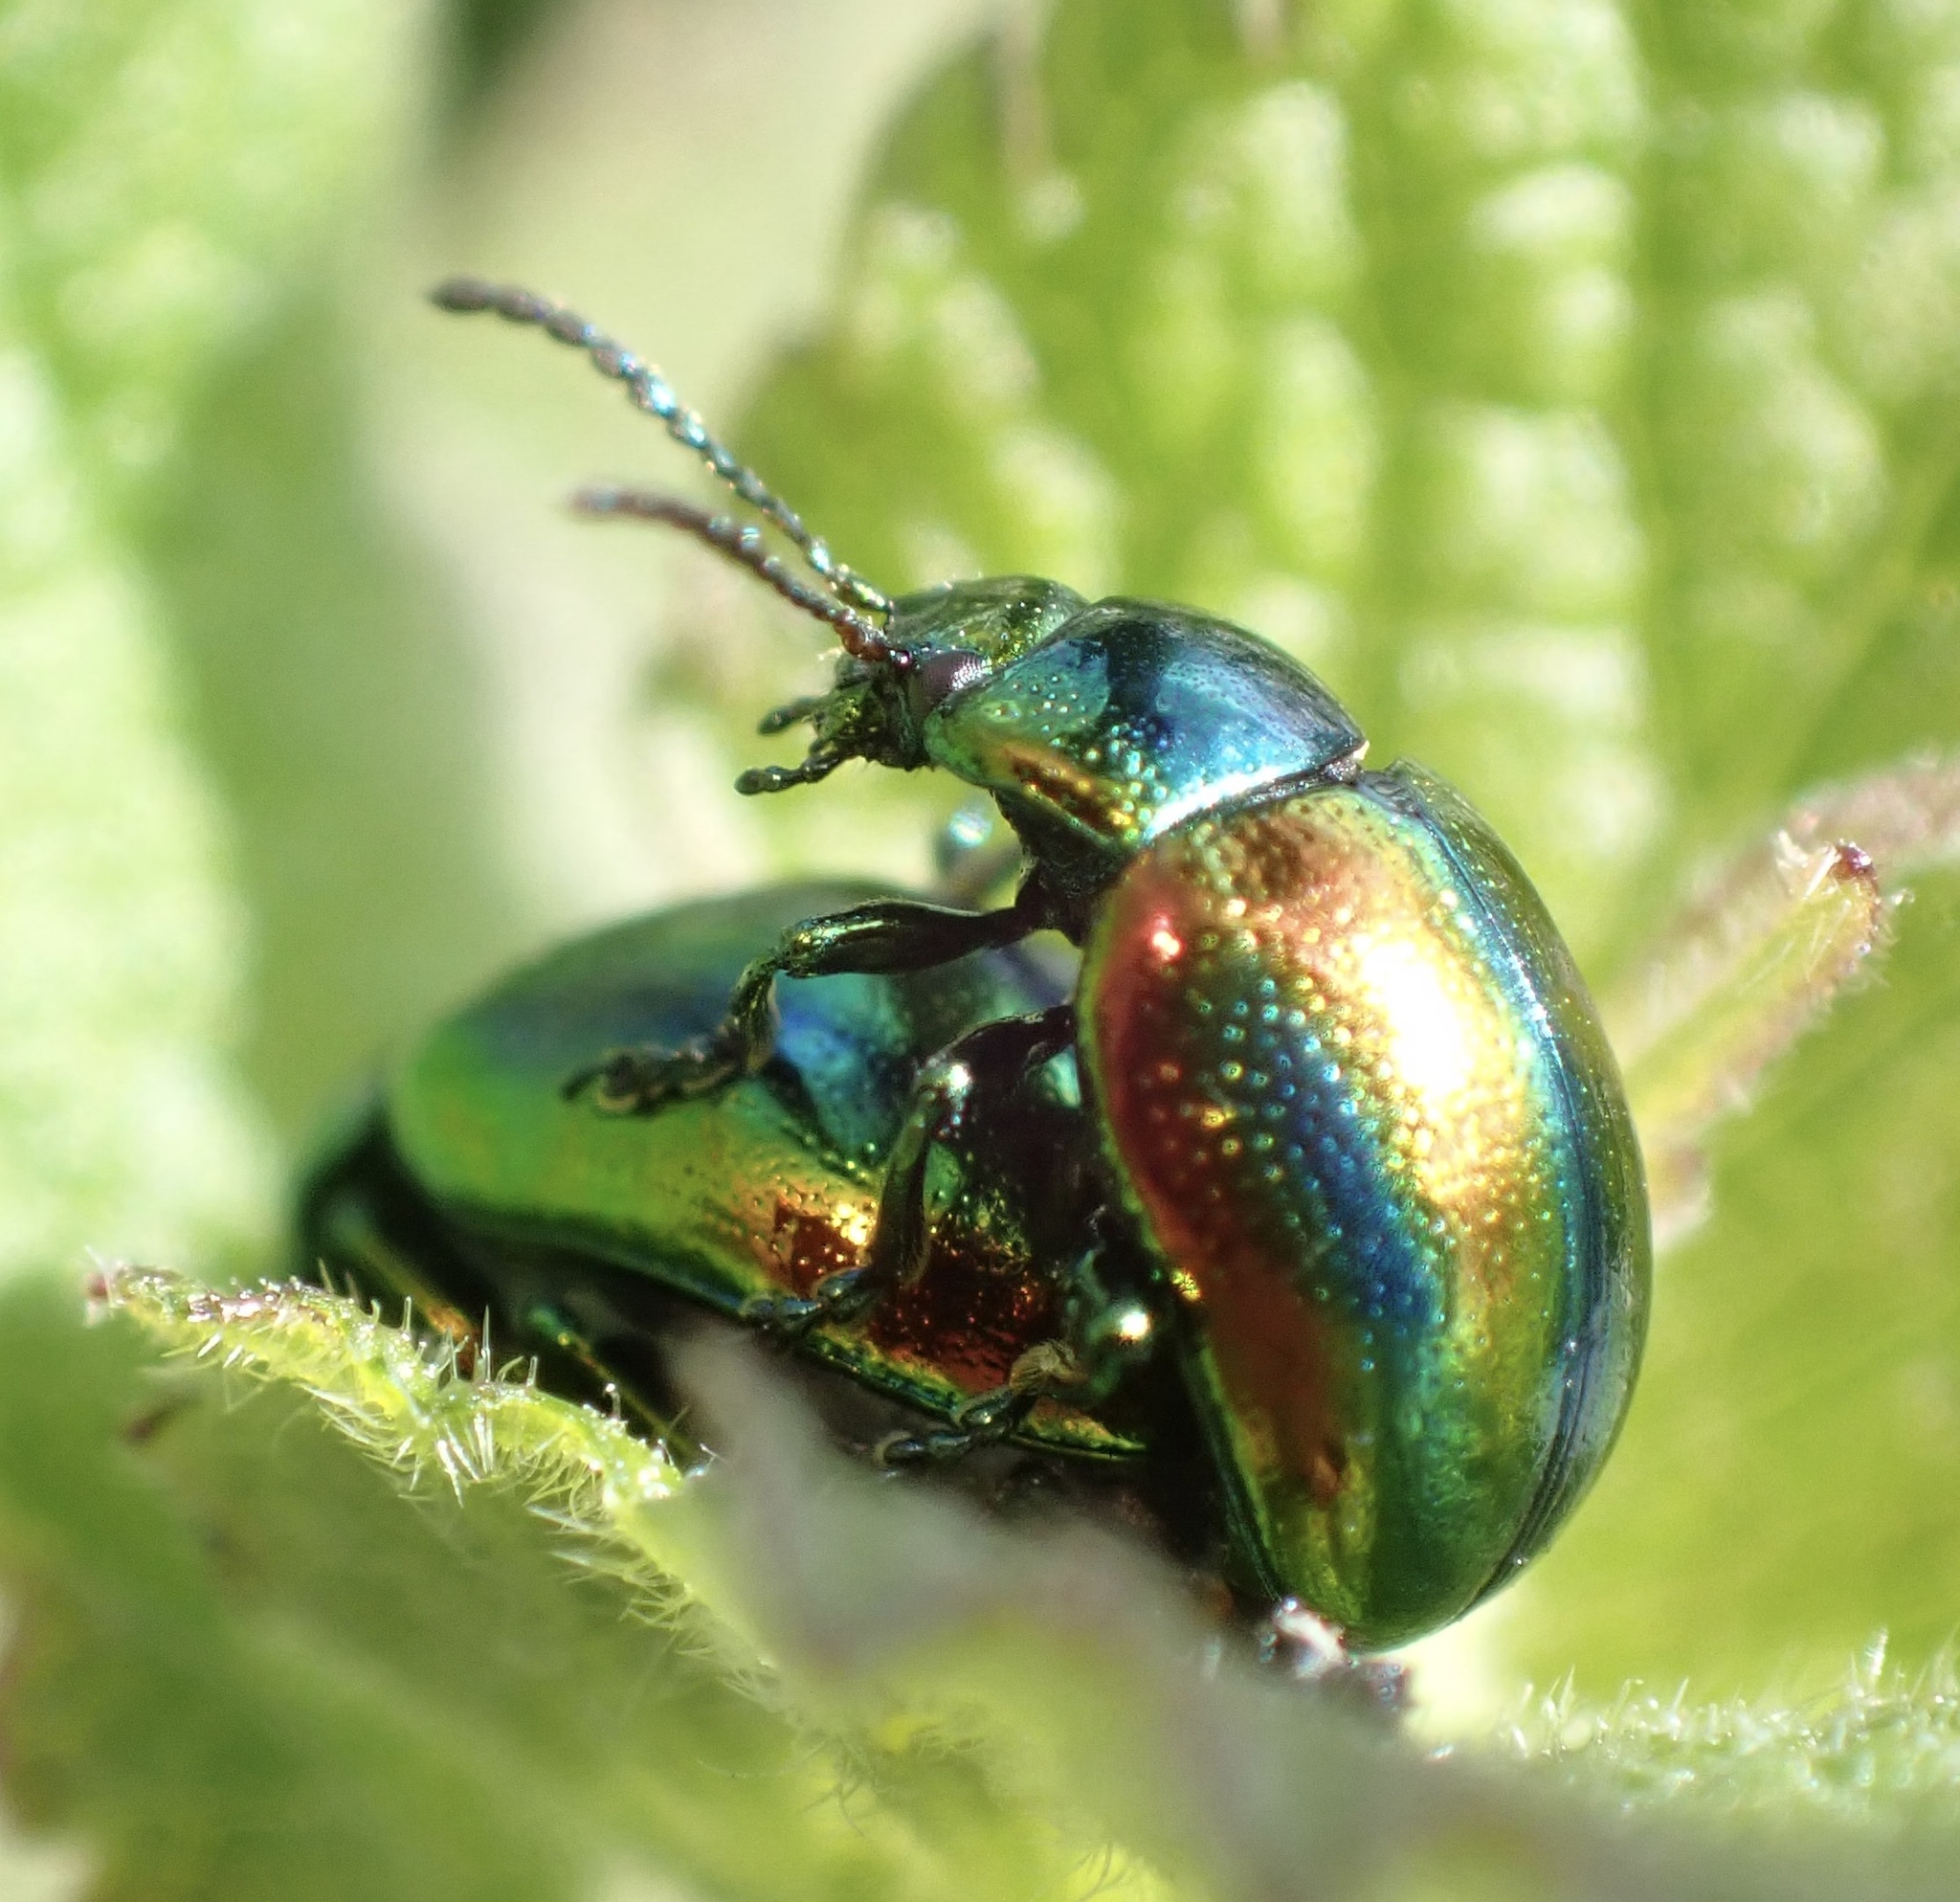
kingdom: Animalia
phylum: Arthropoda
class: Insecta
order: Coleoptera
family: Chrysomelidae
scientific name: Chrysomelidae
